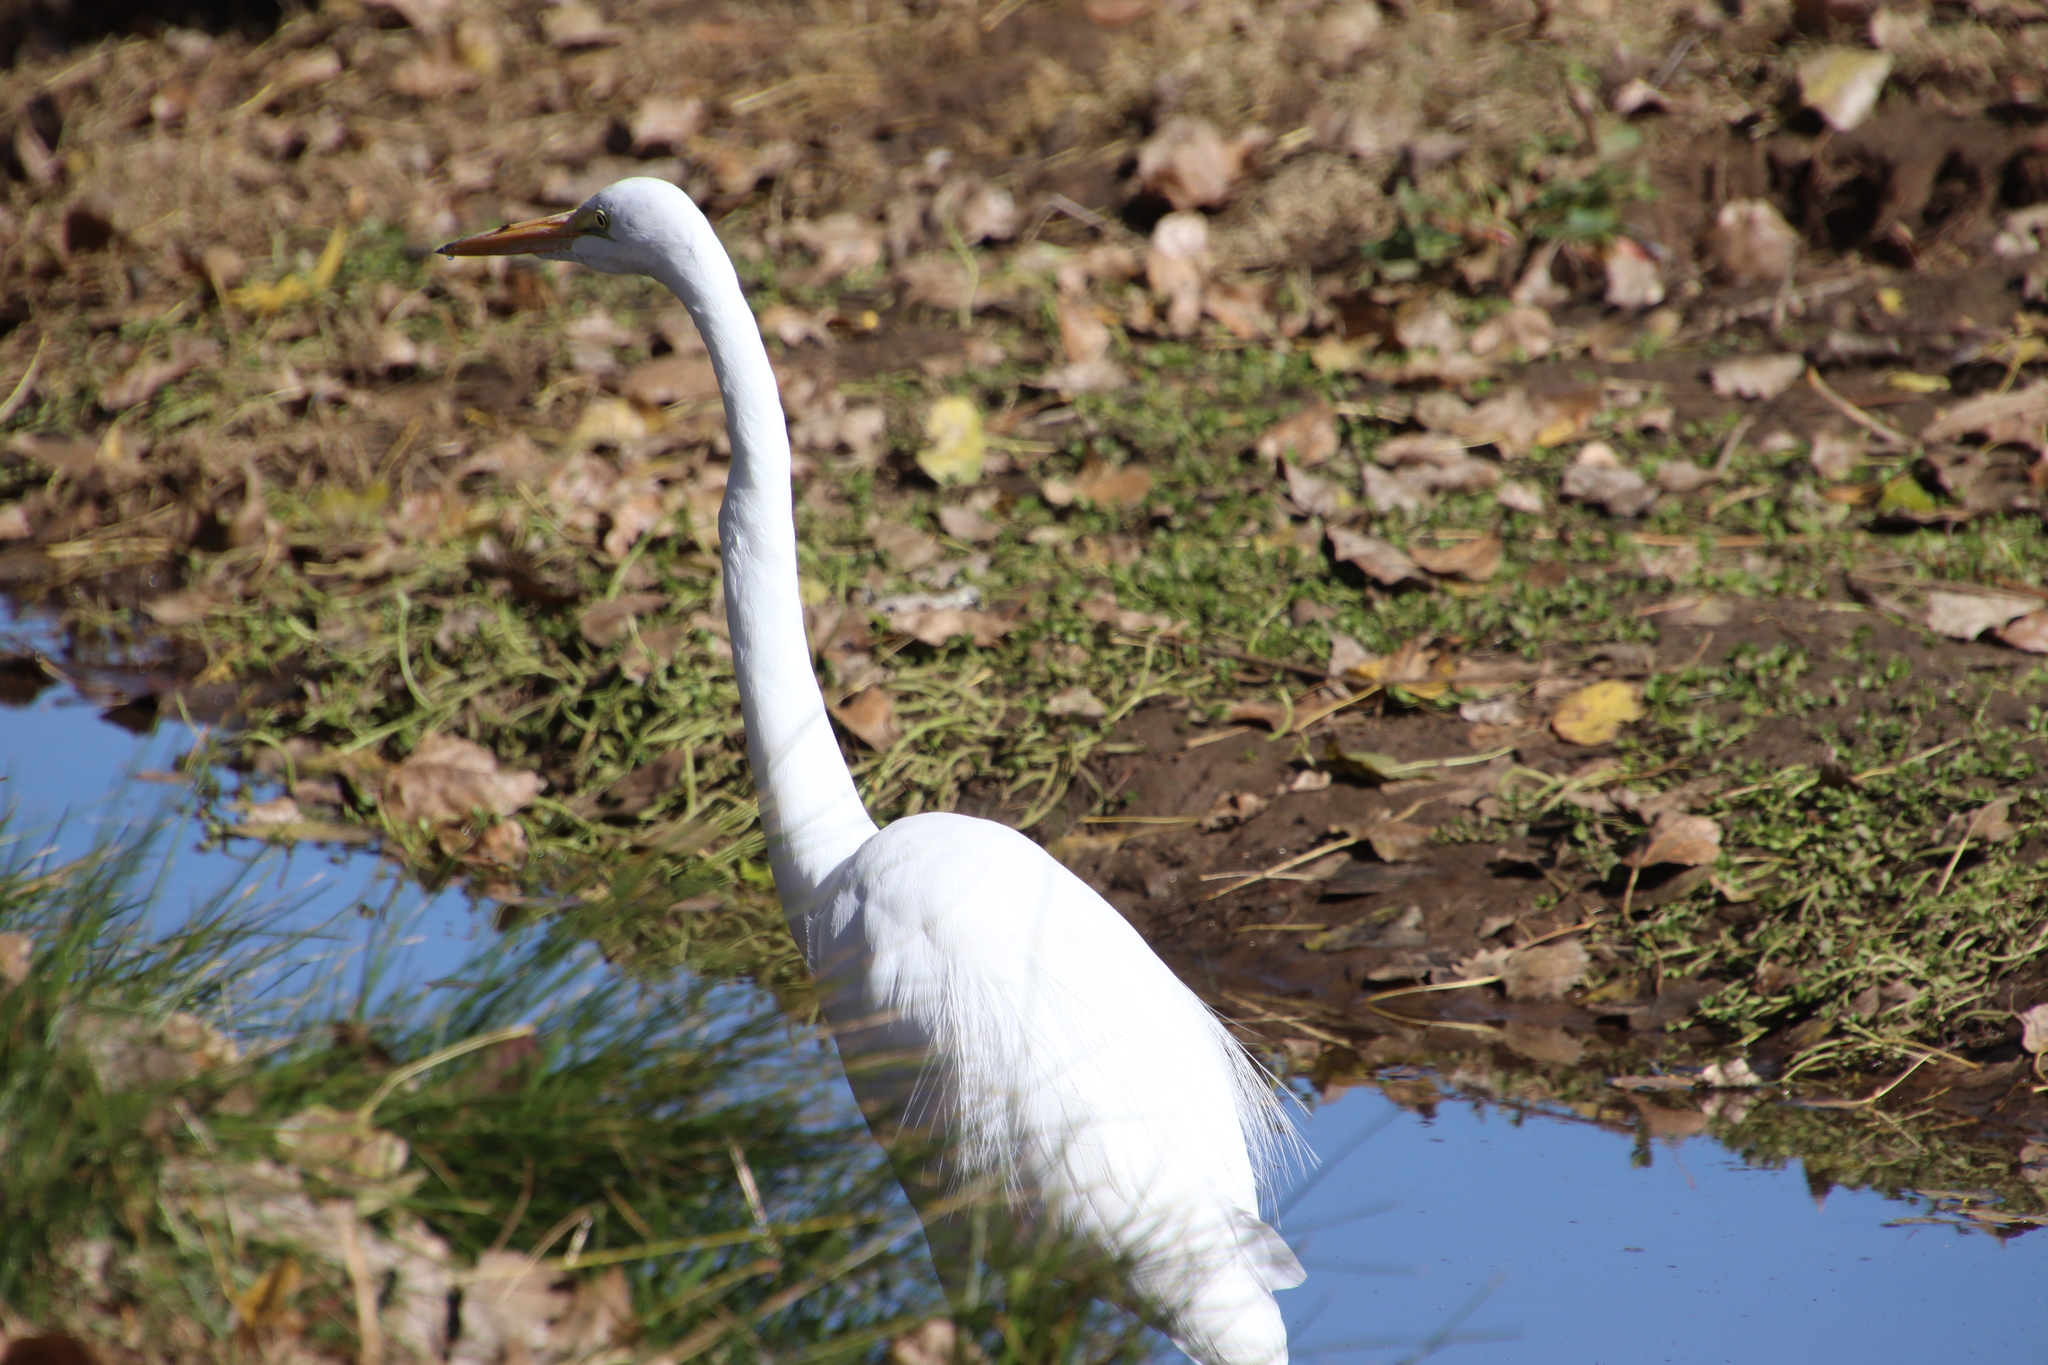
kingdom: Animalia
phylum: Chordata
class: Aves
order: Pelecaniformes
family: Ardeidae
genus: Ardea
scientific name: Ardea alba
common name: Great egret
